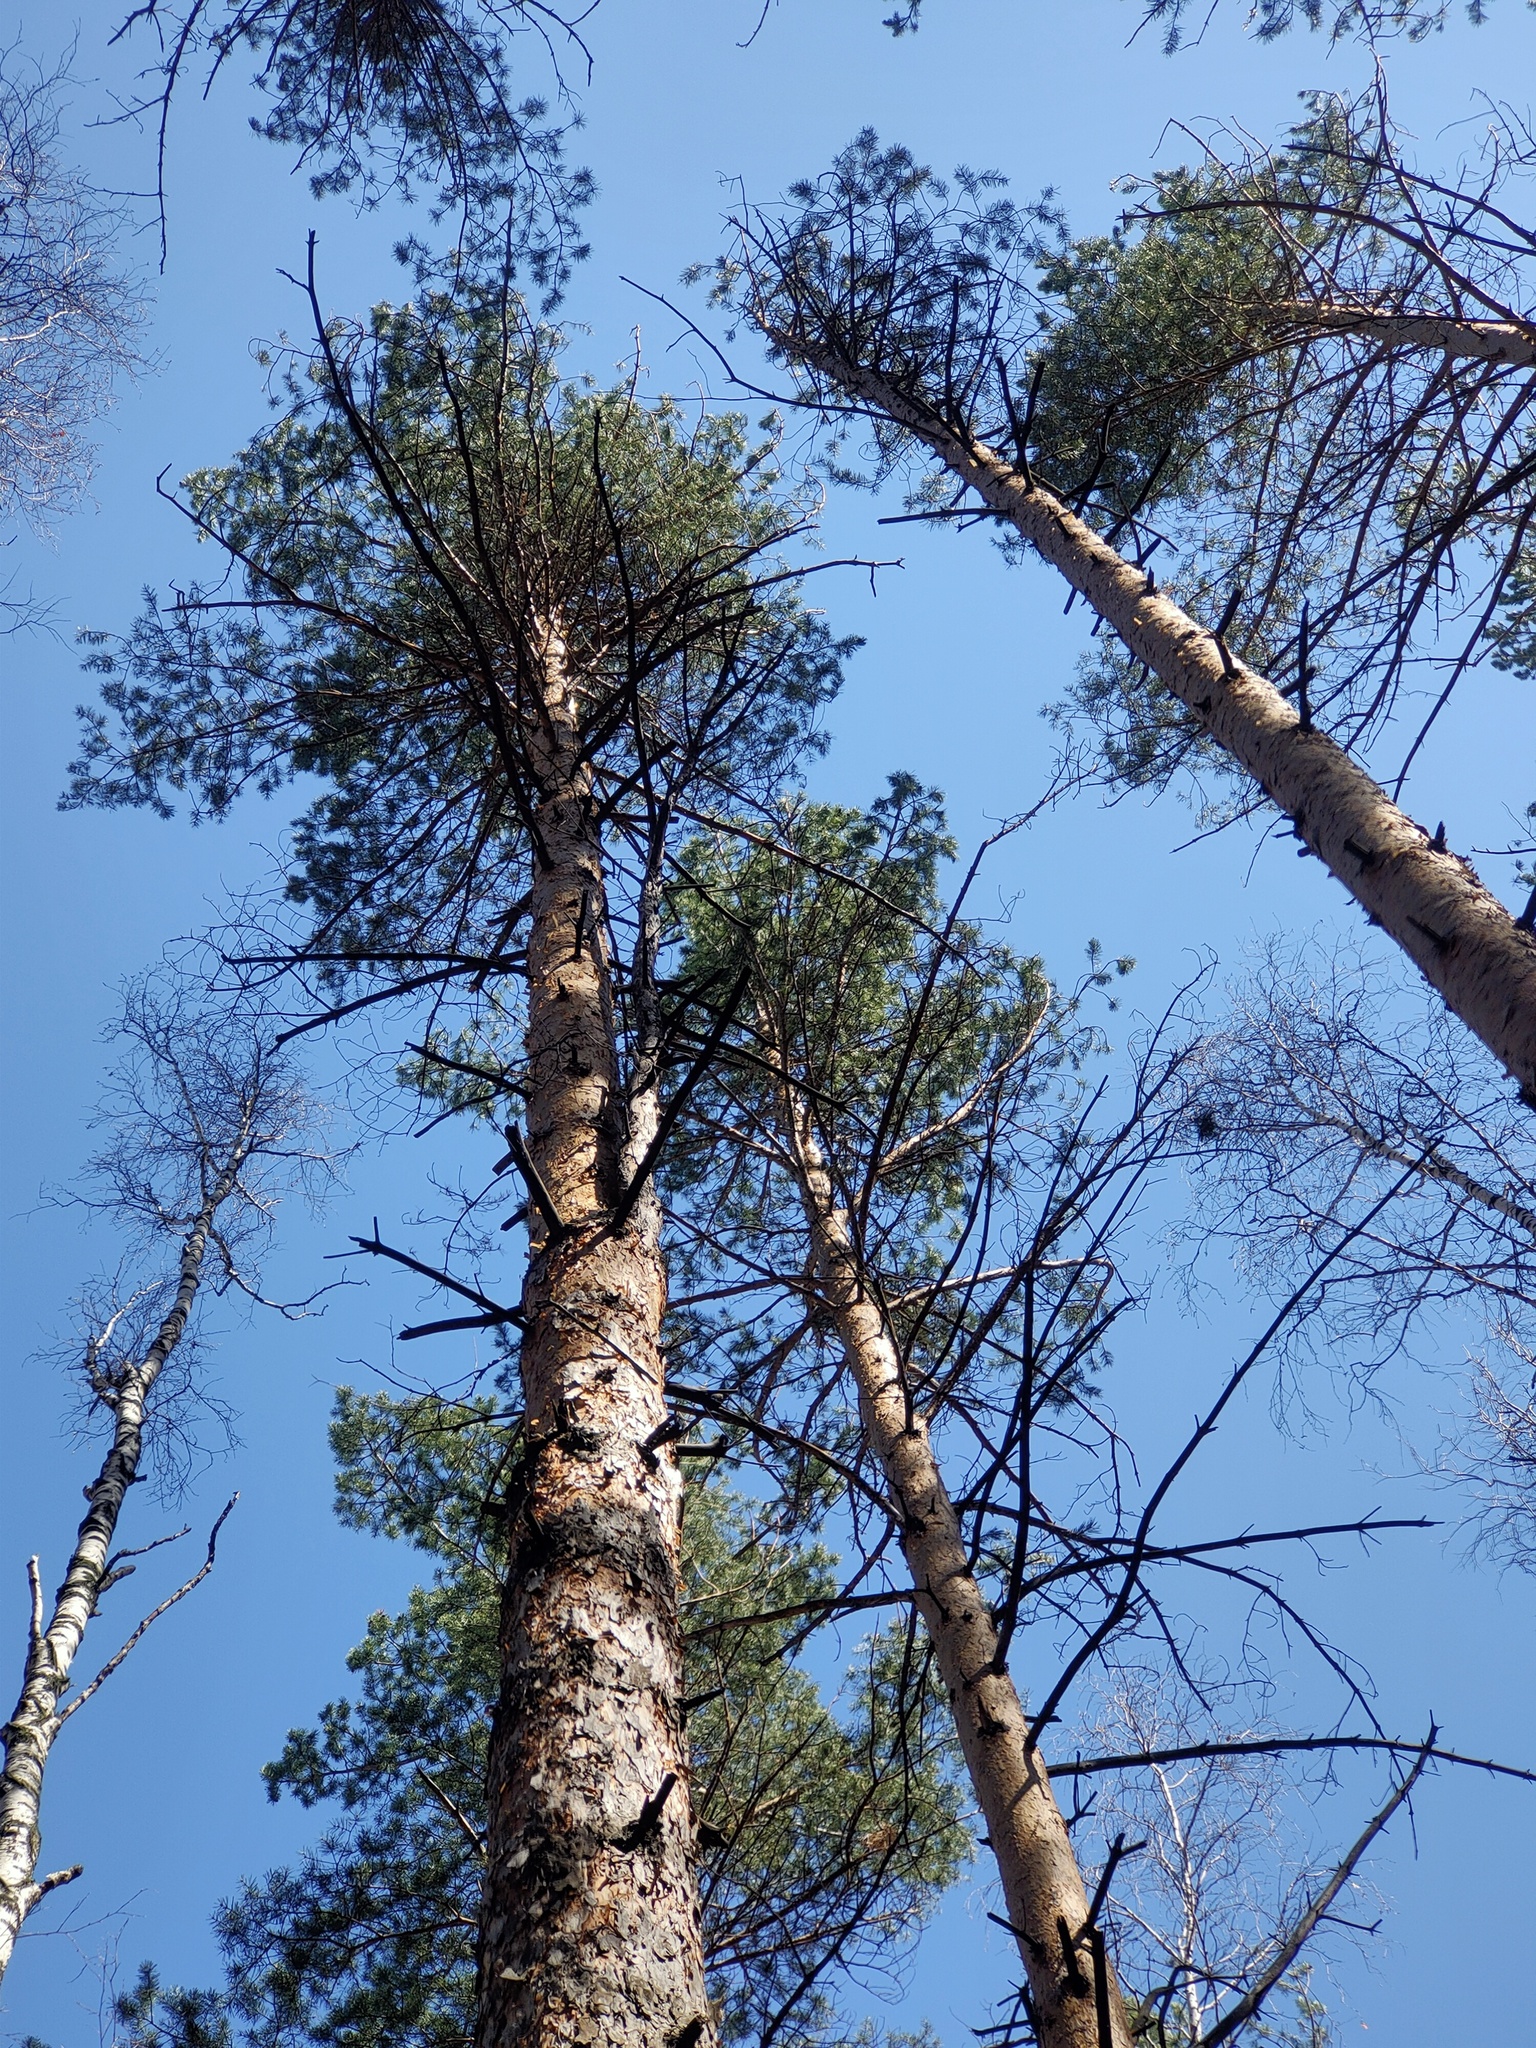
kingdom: Plantae
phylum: Tracheophyta
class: Pinopsida
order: Pinales
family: Pinaceae
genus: Pinus
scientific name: Pinus sylvestris
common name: Scots pine
